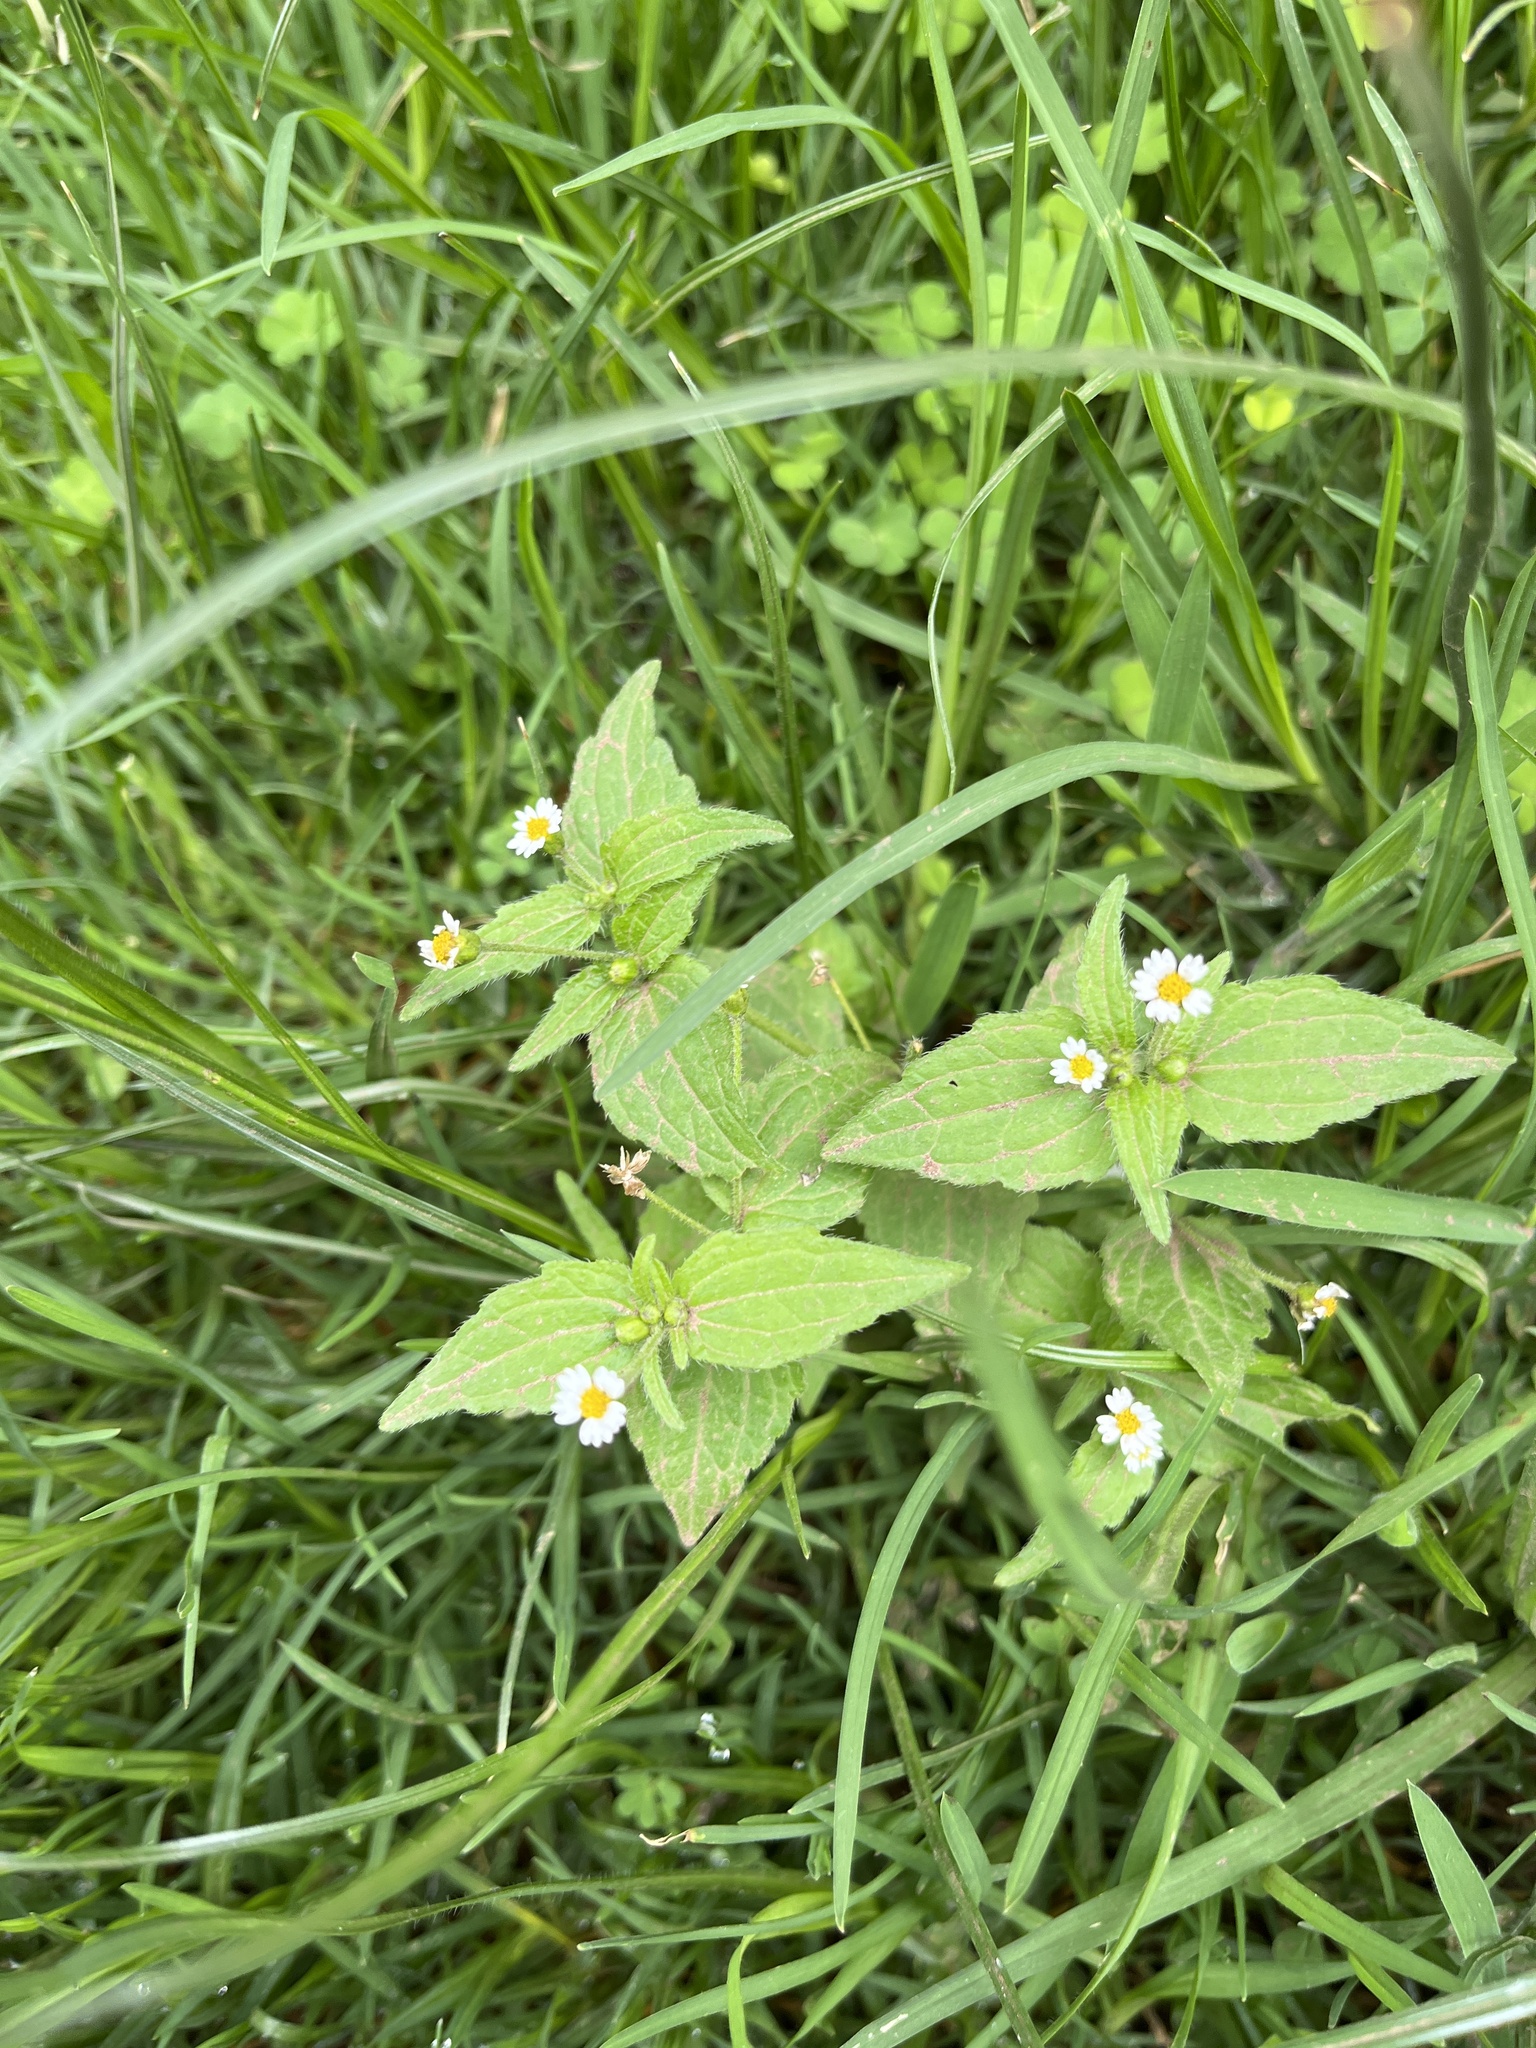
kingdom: Plantae
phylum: Tracheophyta
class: Magnoliopsida
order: Asterales
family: Asteraceae
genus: Galinsoga
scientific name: Galinsoga quadriradiata
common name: Shaggy soldier
